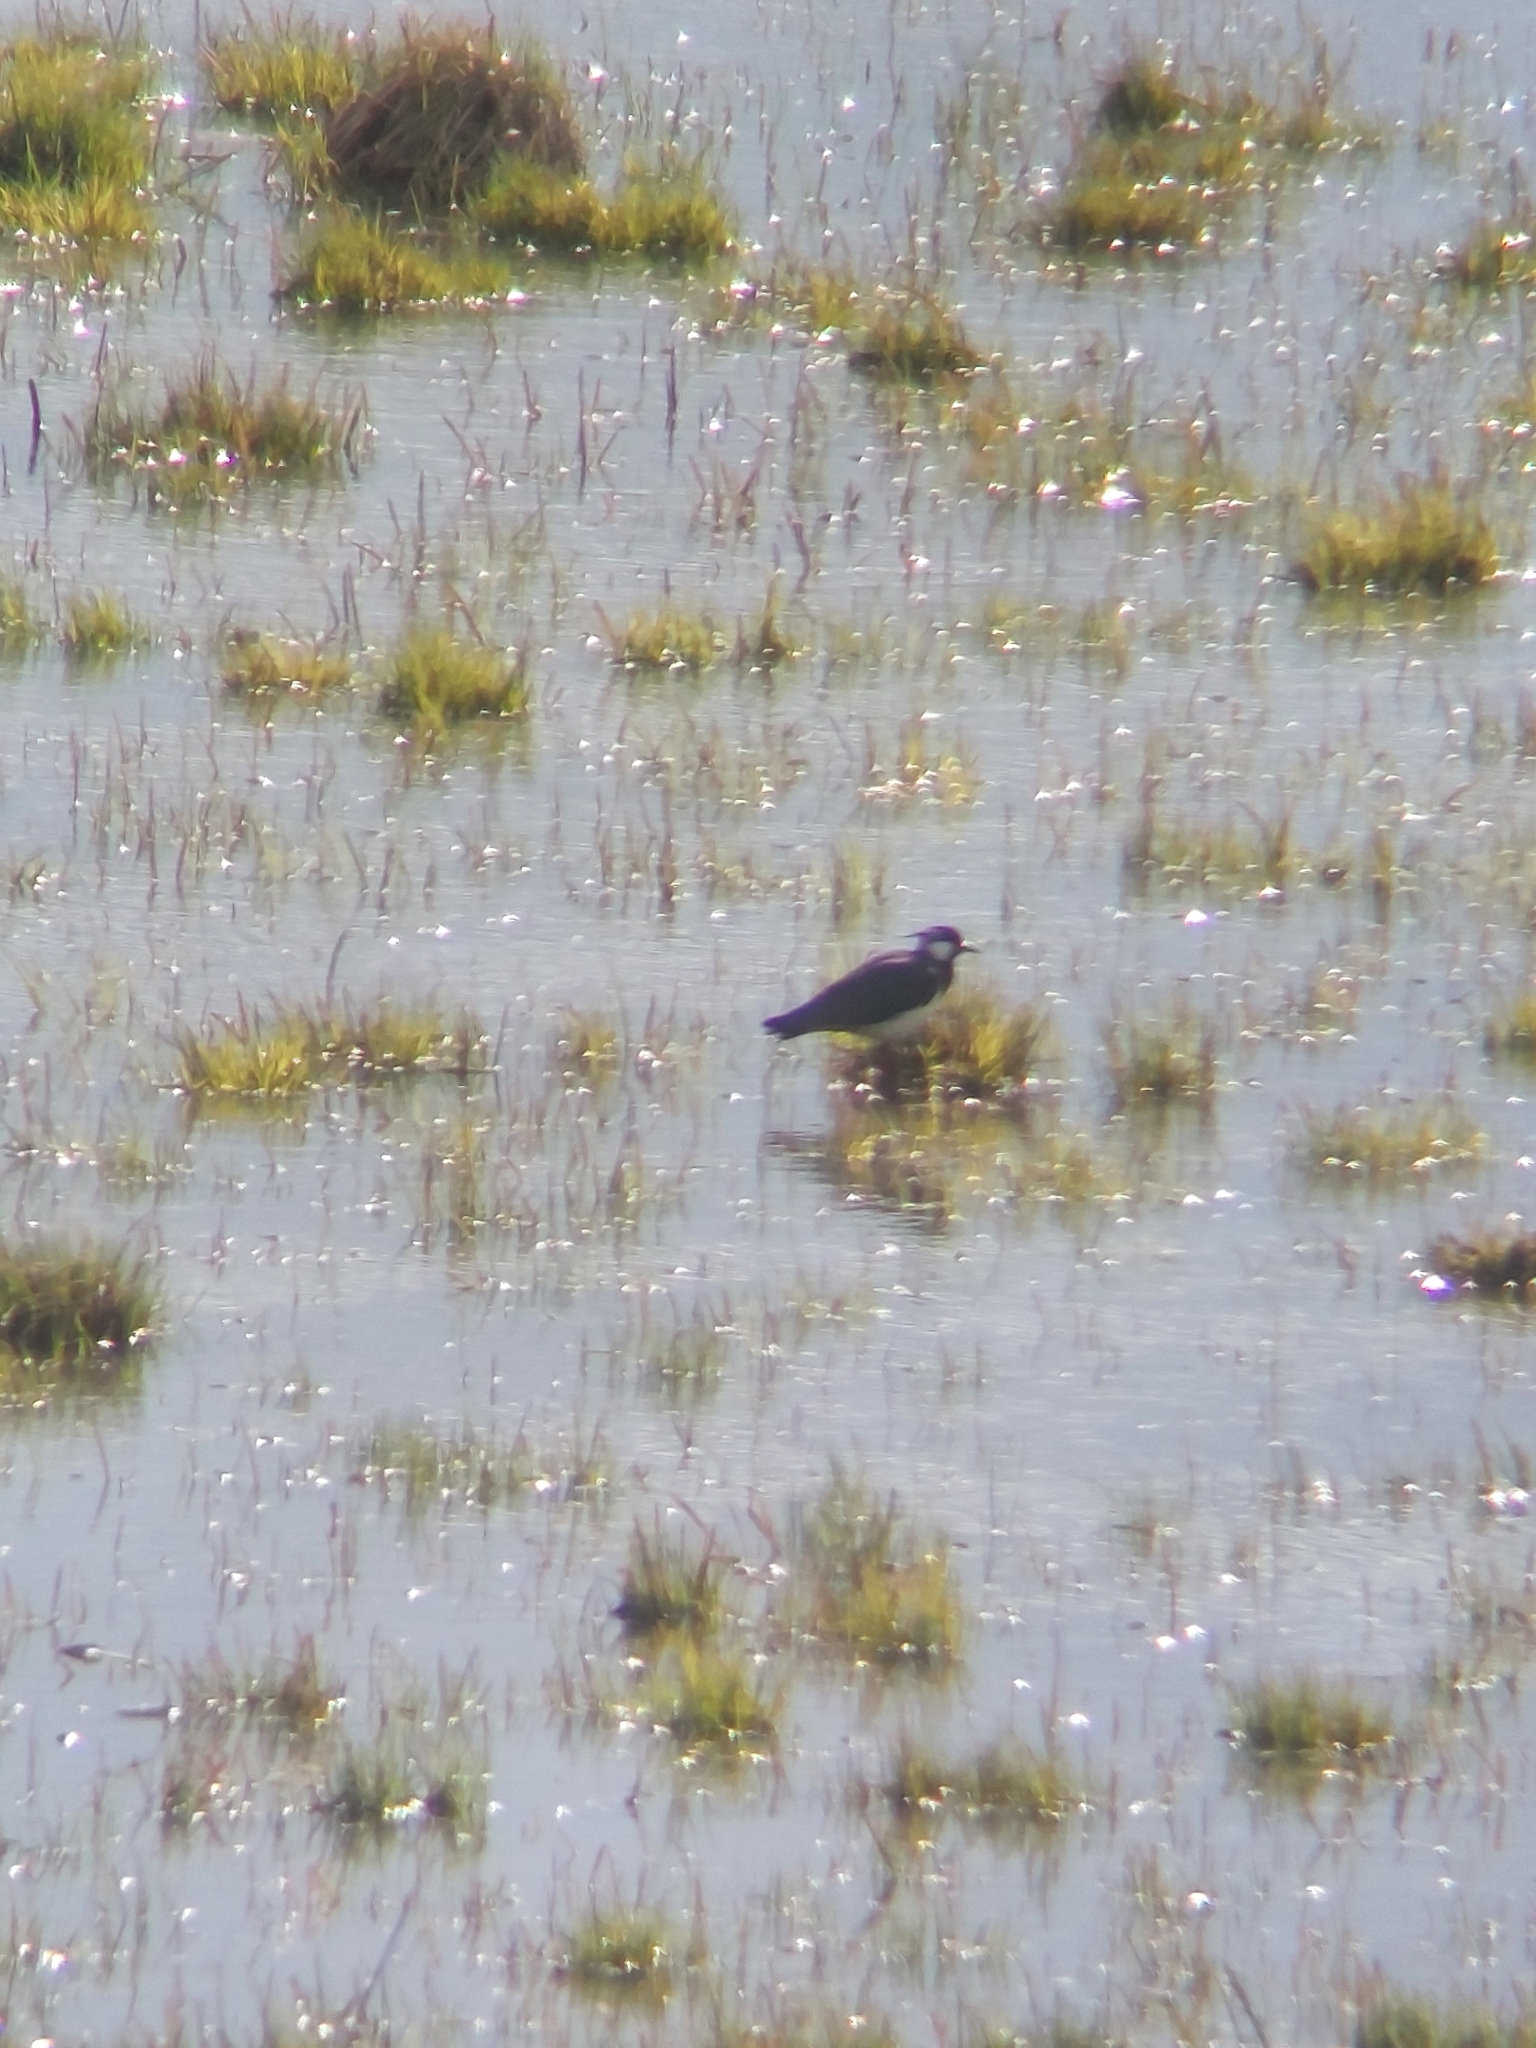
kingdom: Animalia
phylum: Chordata
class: Aves
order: Charadriiformes
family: Charadriidae
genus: Vanellus
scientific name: Vanellus vanellus
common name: Northern lapwing
